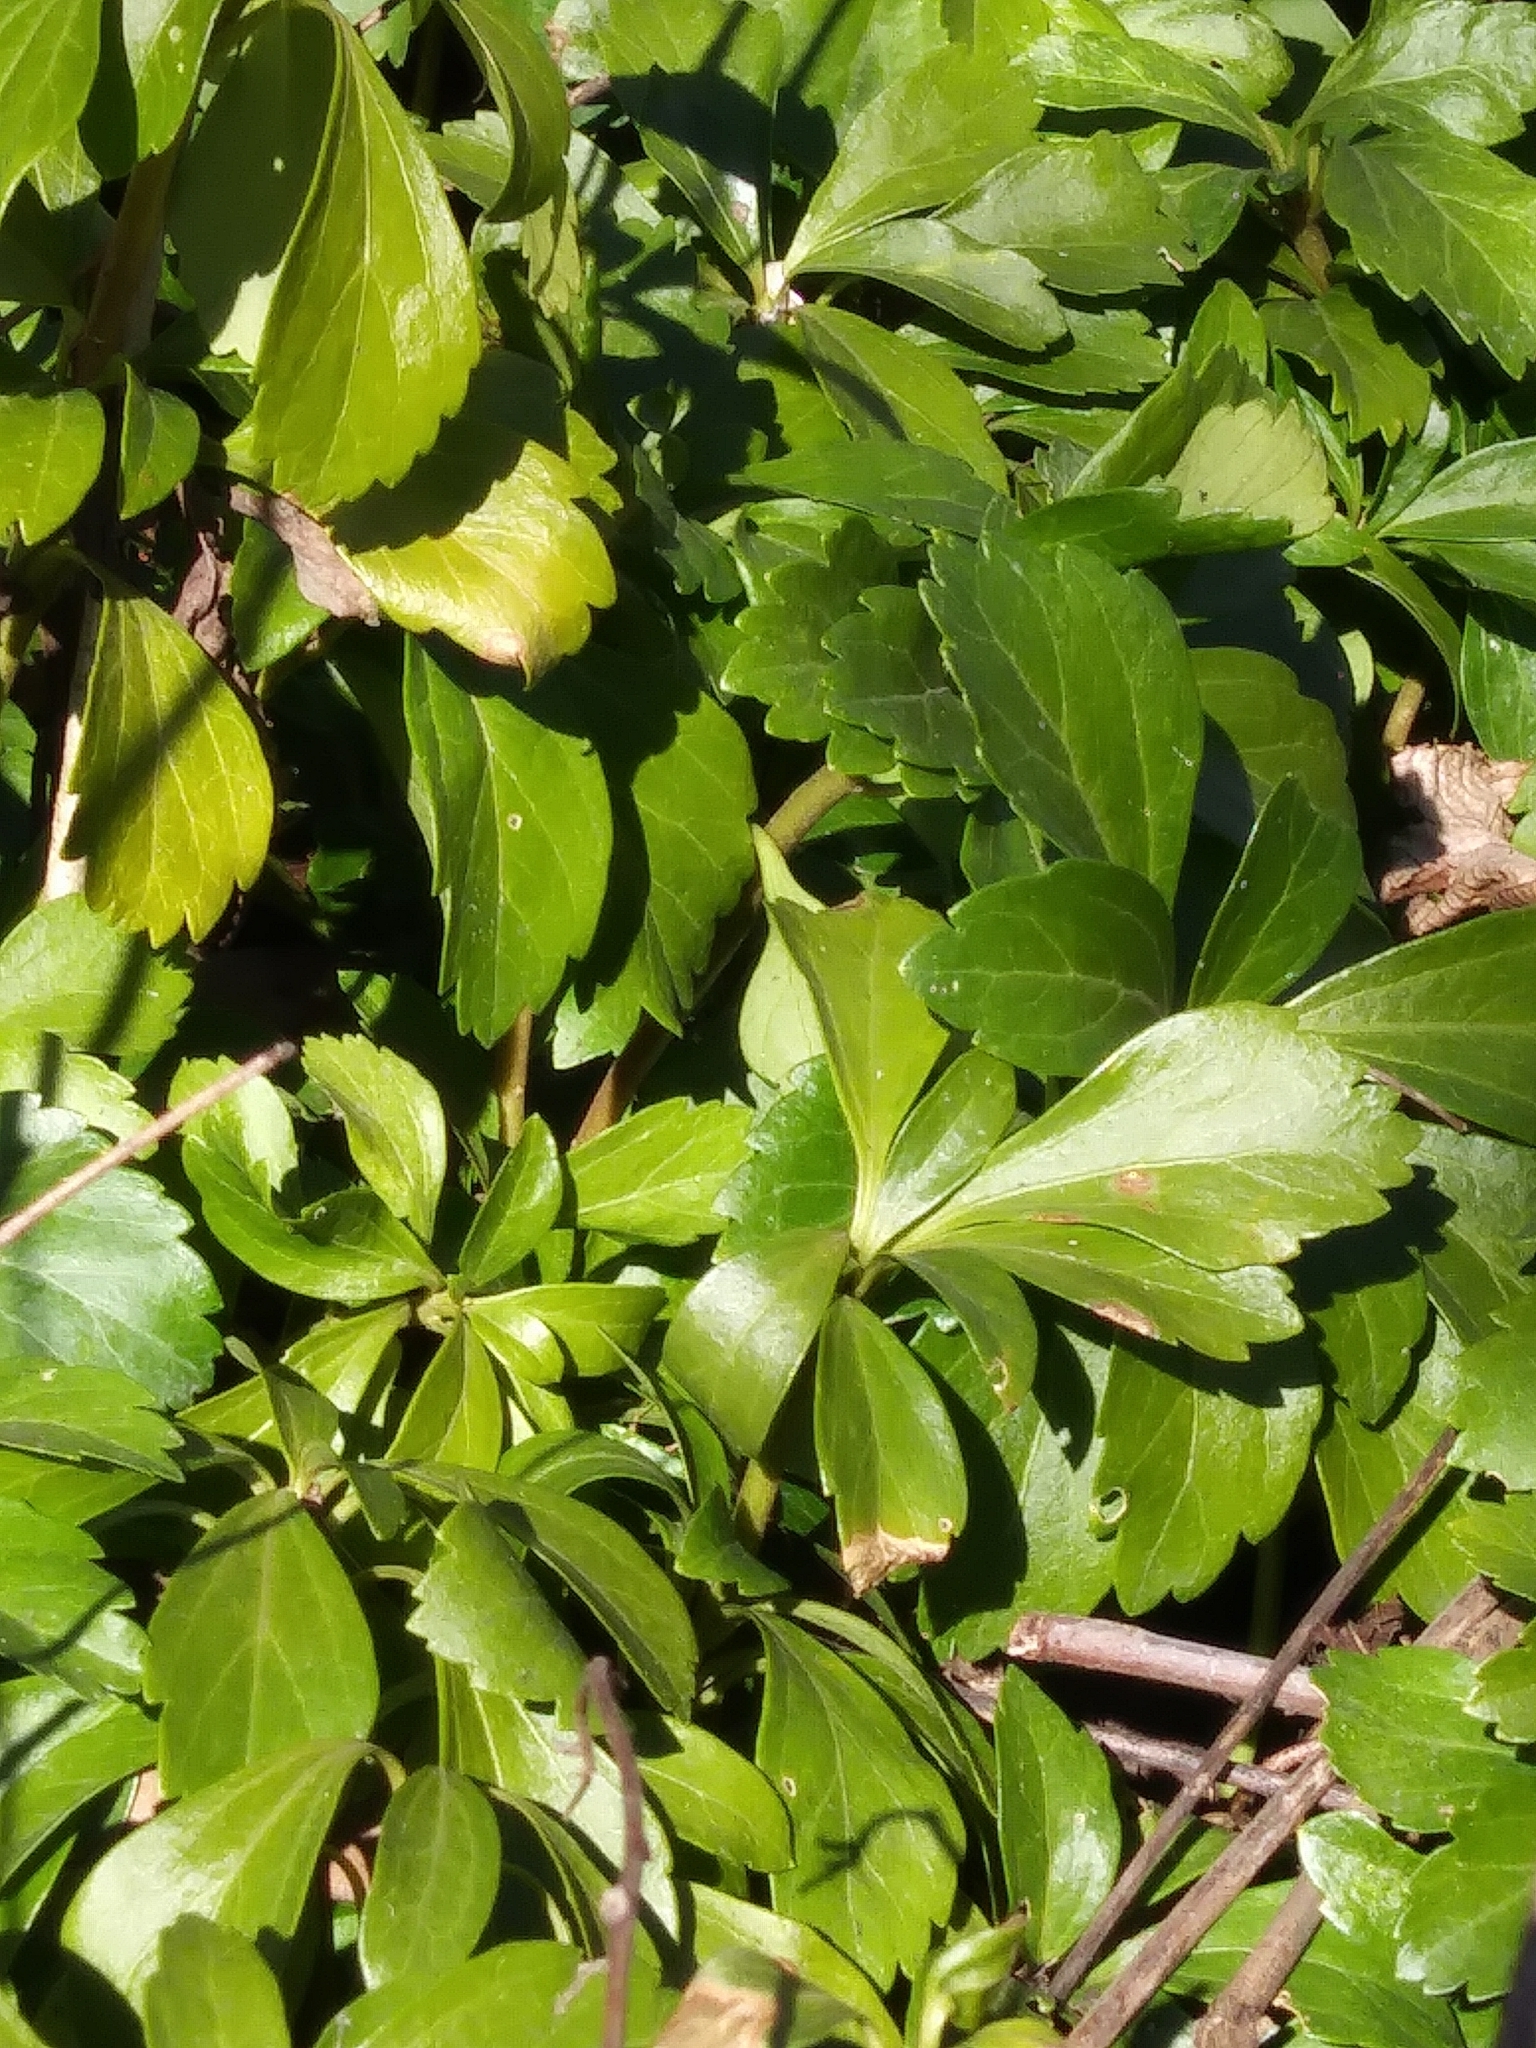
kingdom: Plantae
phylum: Tracheophyta
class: Magnoliopsida
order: Buxales
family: Buxaceae
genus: Pachysandra
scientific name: Pachysandra terminalis
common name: Japanese pachysandra
